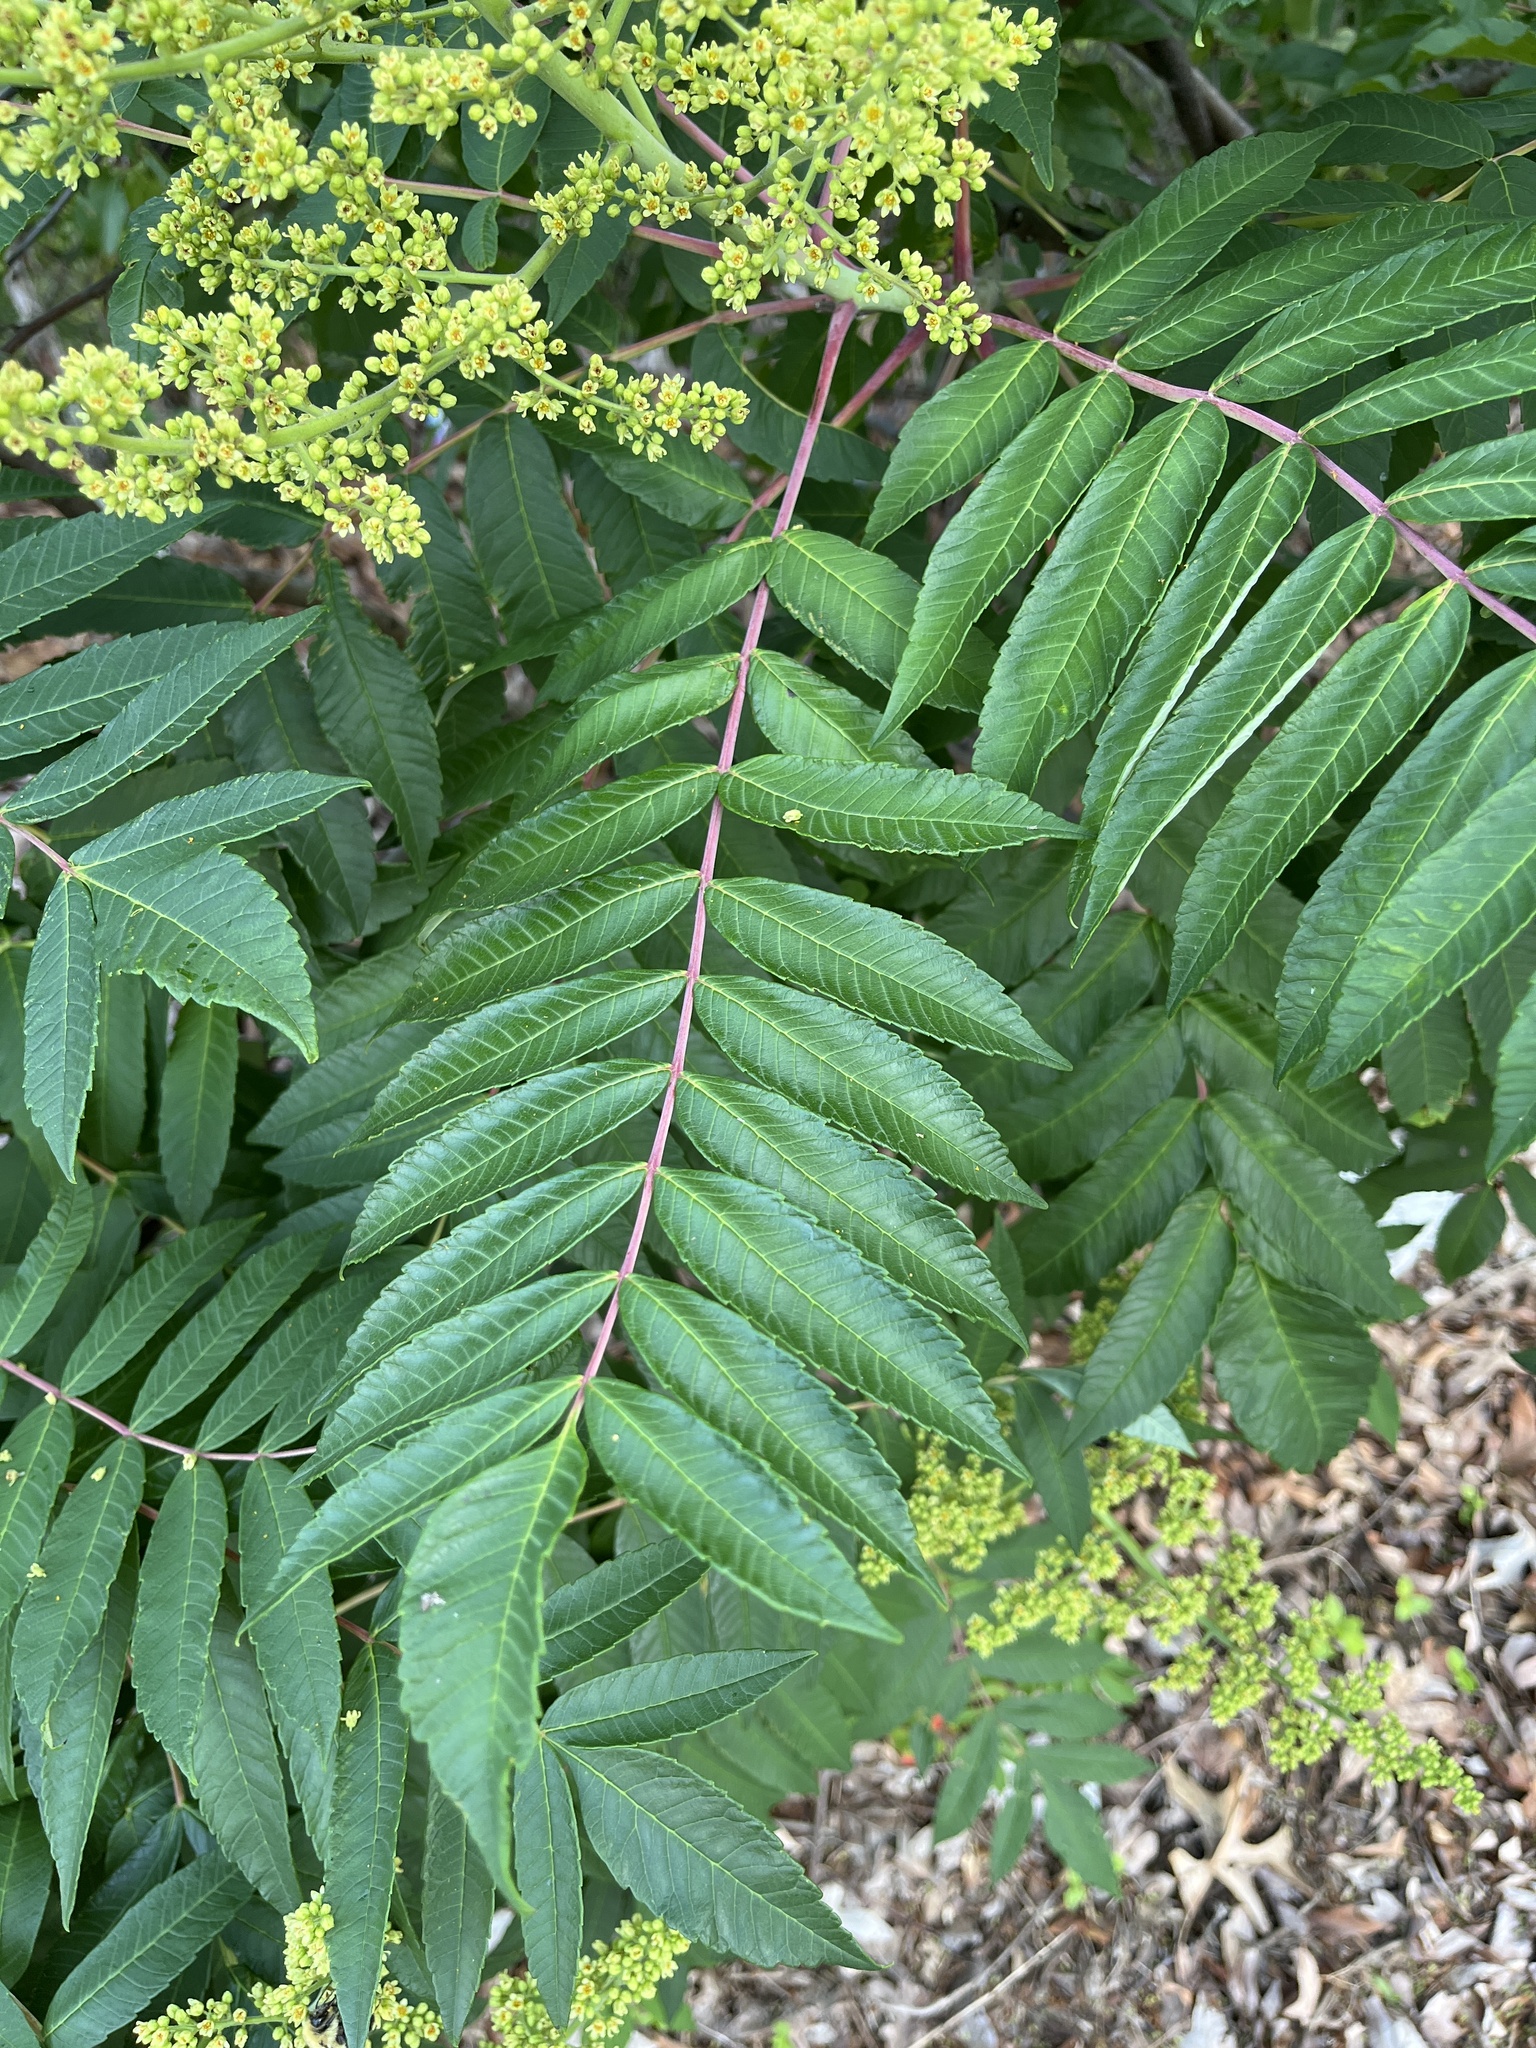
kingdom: Plantae
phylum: Tracheophyta
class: Magnoliopsida
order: Sapindales
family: Anacardiaceae
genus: Rhus
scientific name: Rhus glabra
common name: Scarlet sumac
